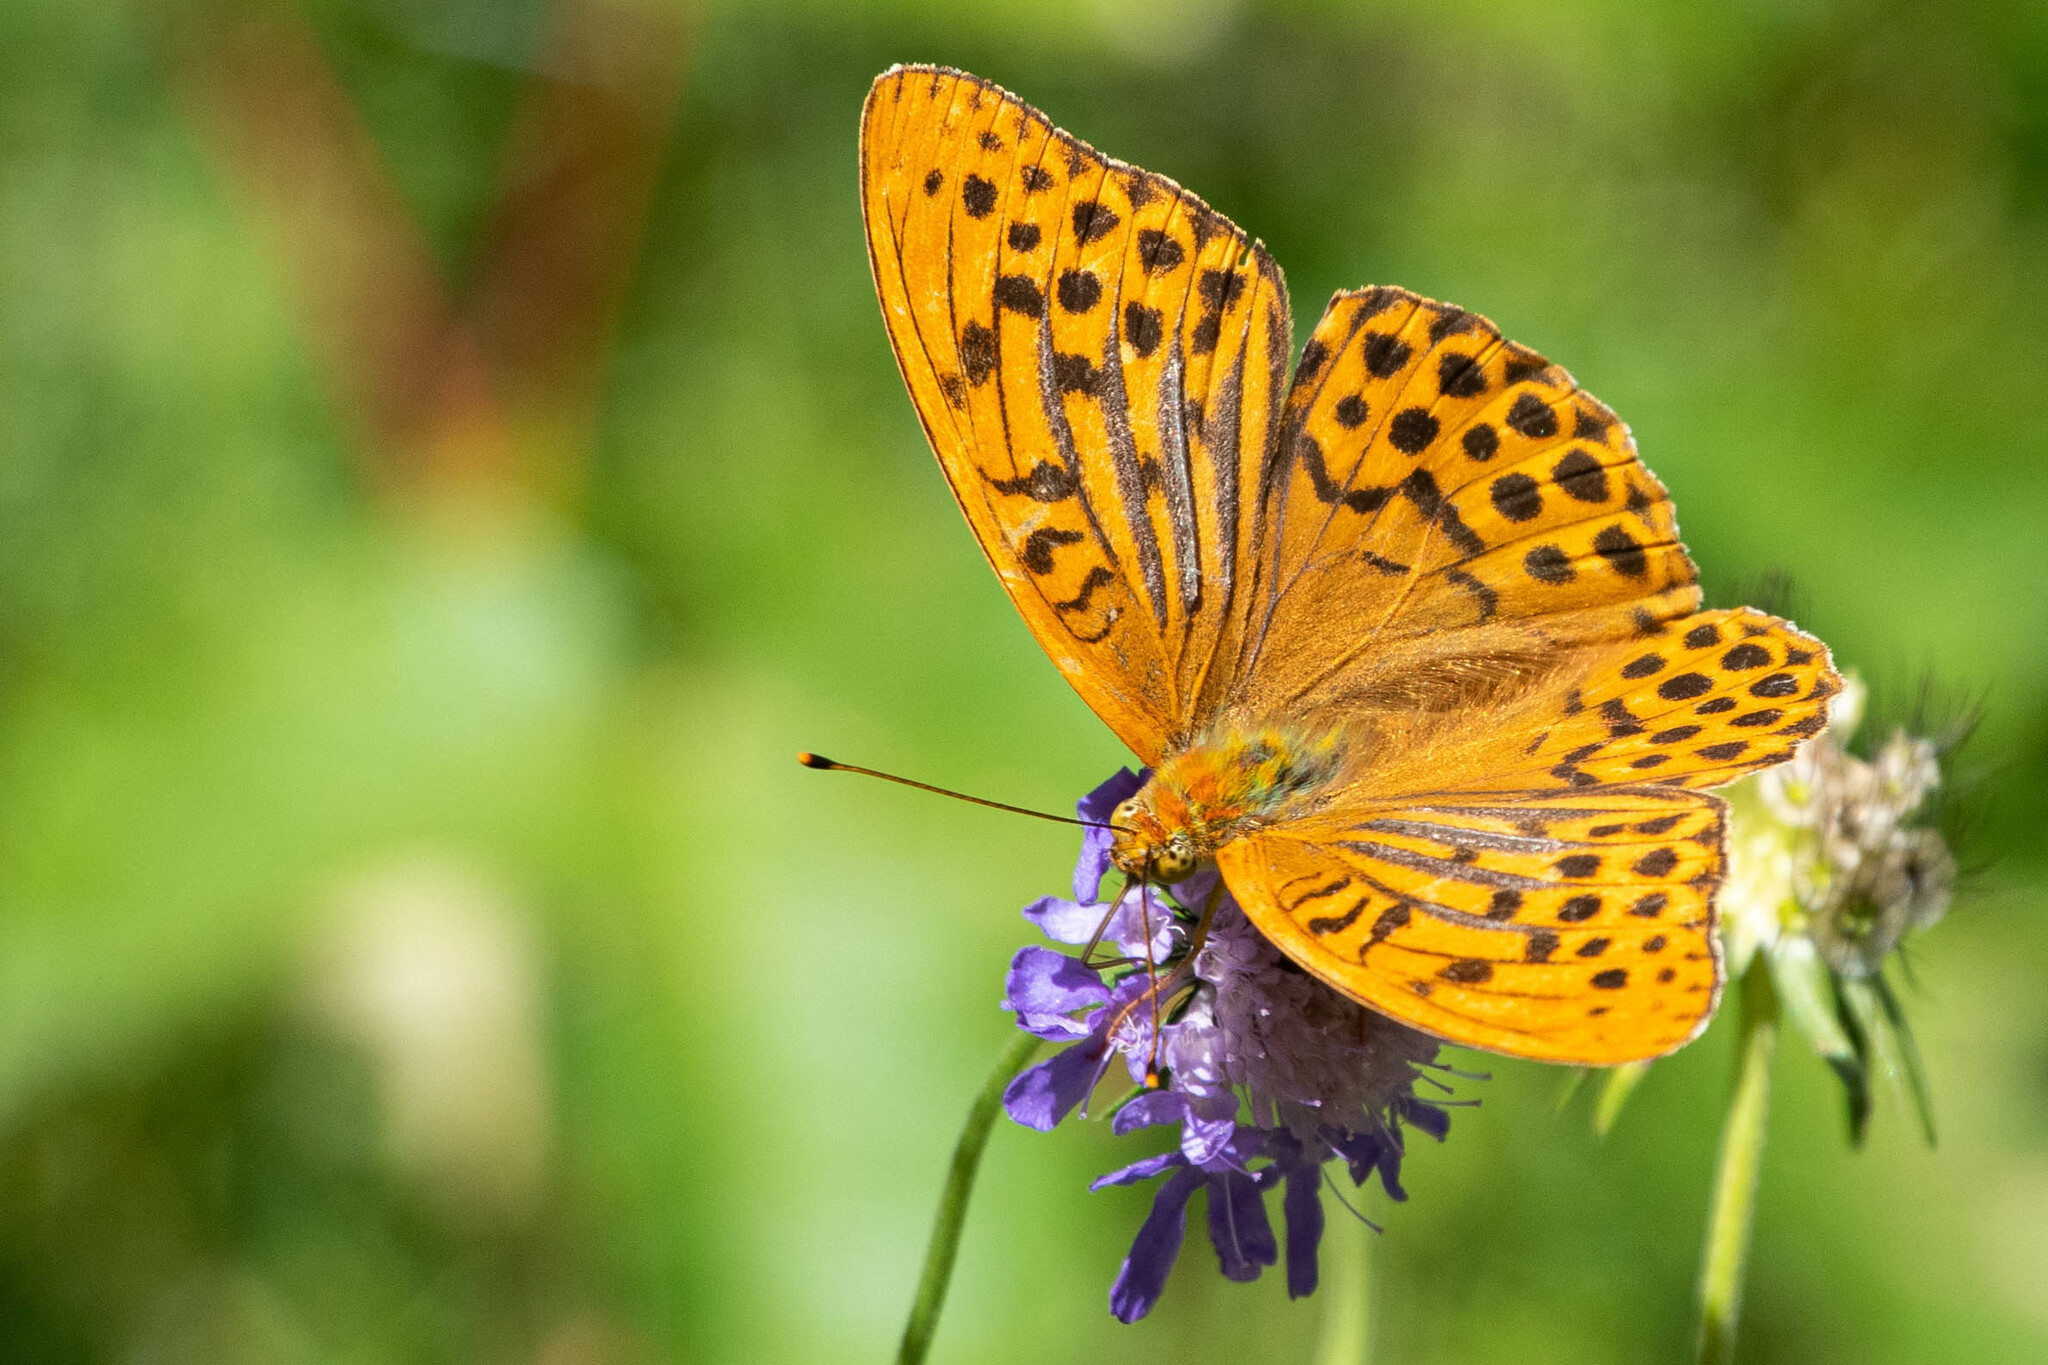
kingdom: Animalia
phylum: Arthropoda
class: Insecta
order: Lepidoptera
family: Nymphalidae
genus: Argynnis
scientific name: Argynnis paphia
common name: Silver-washed fritillary
